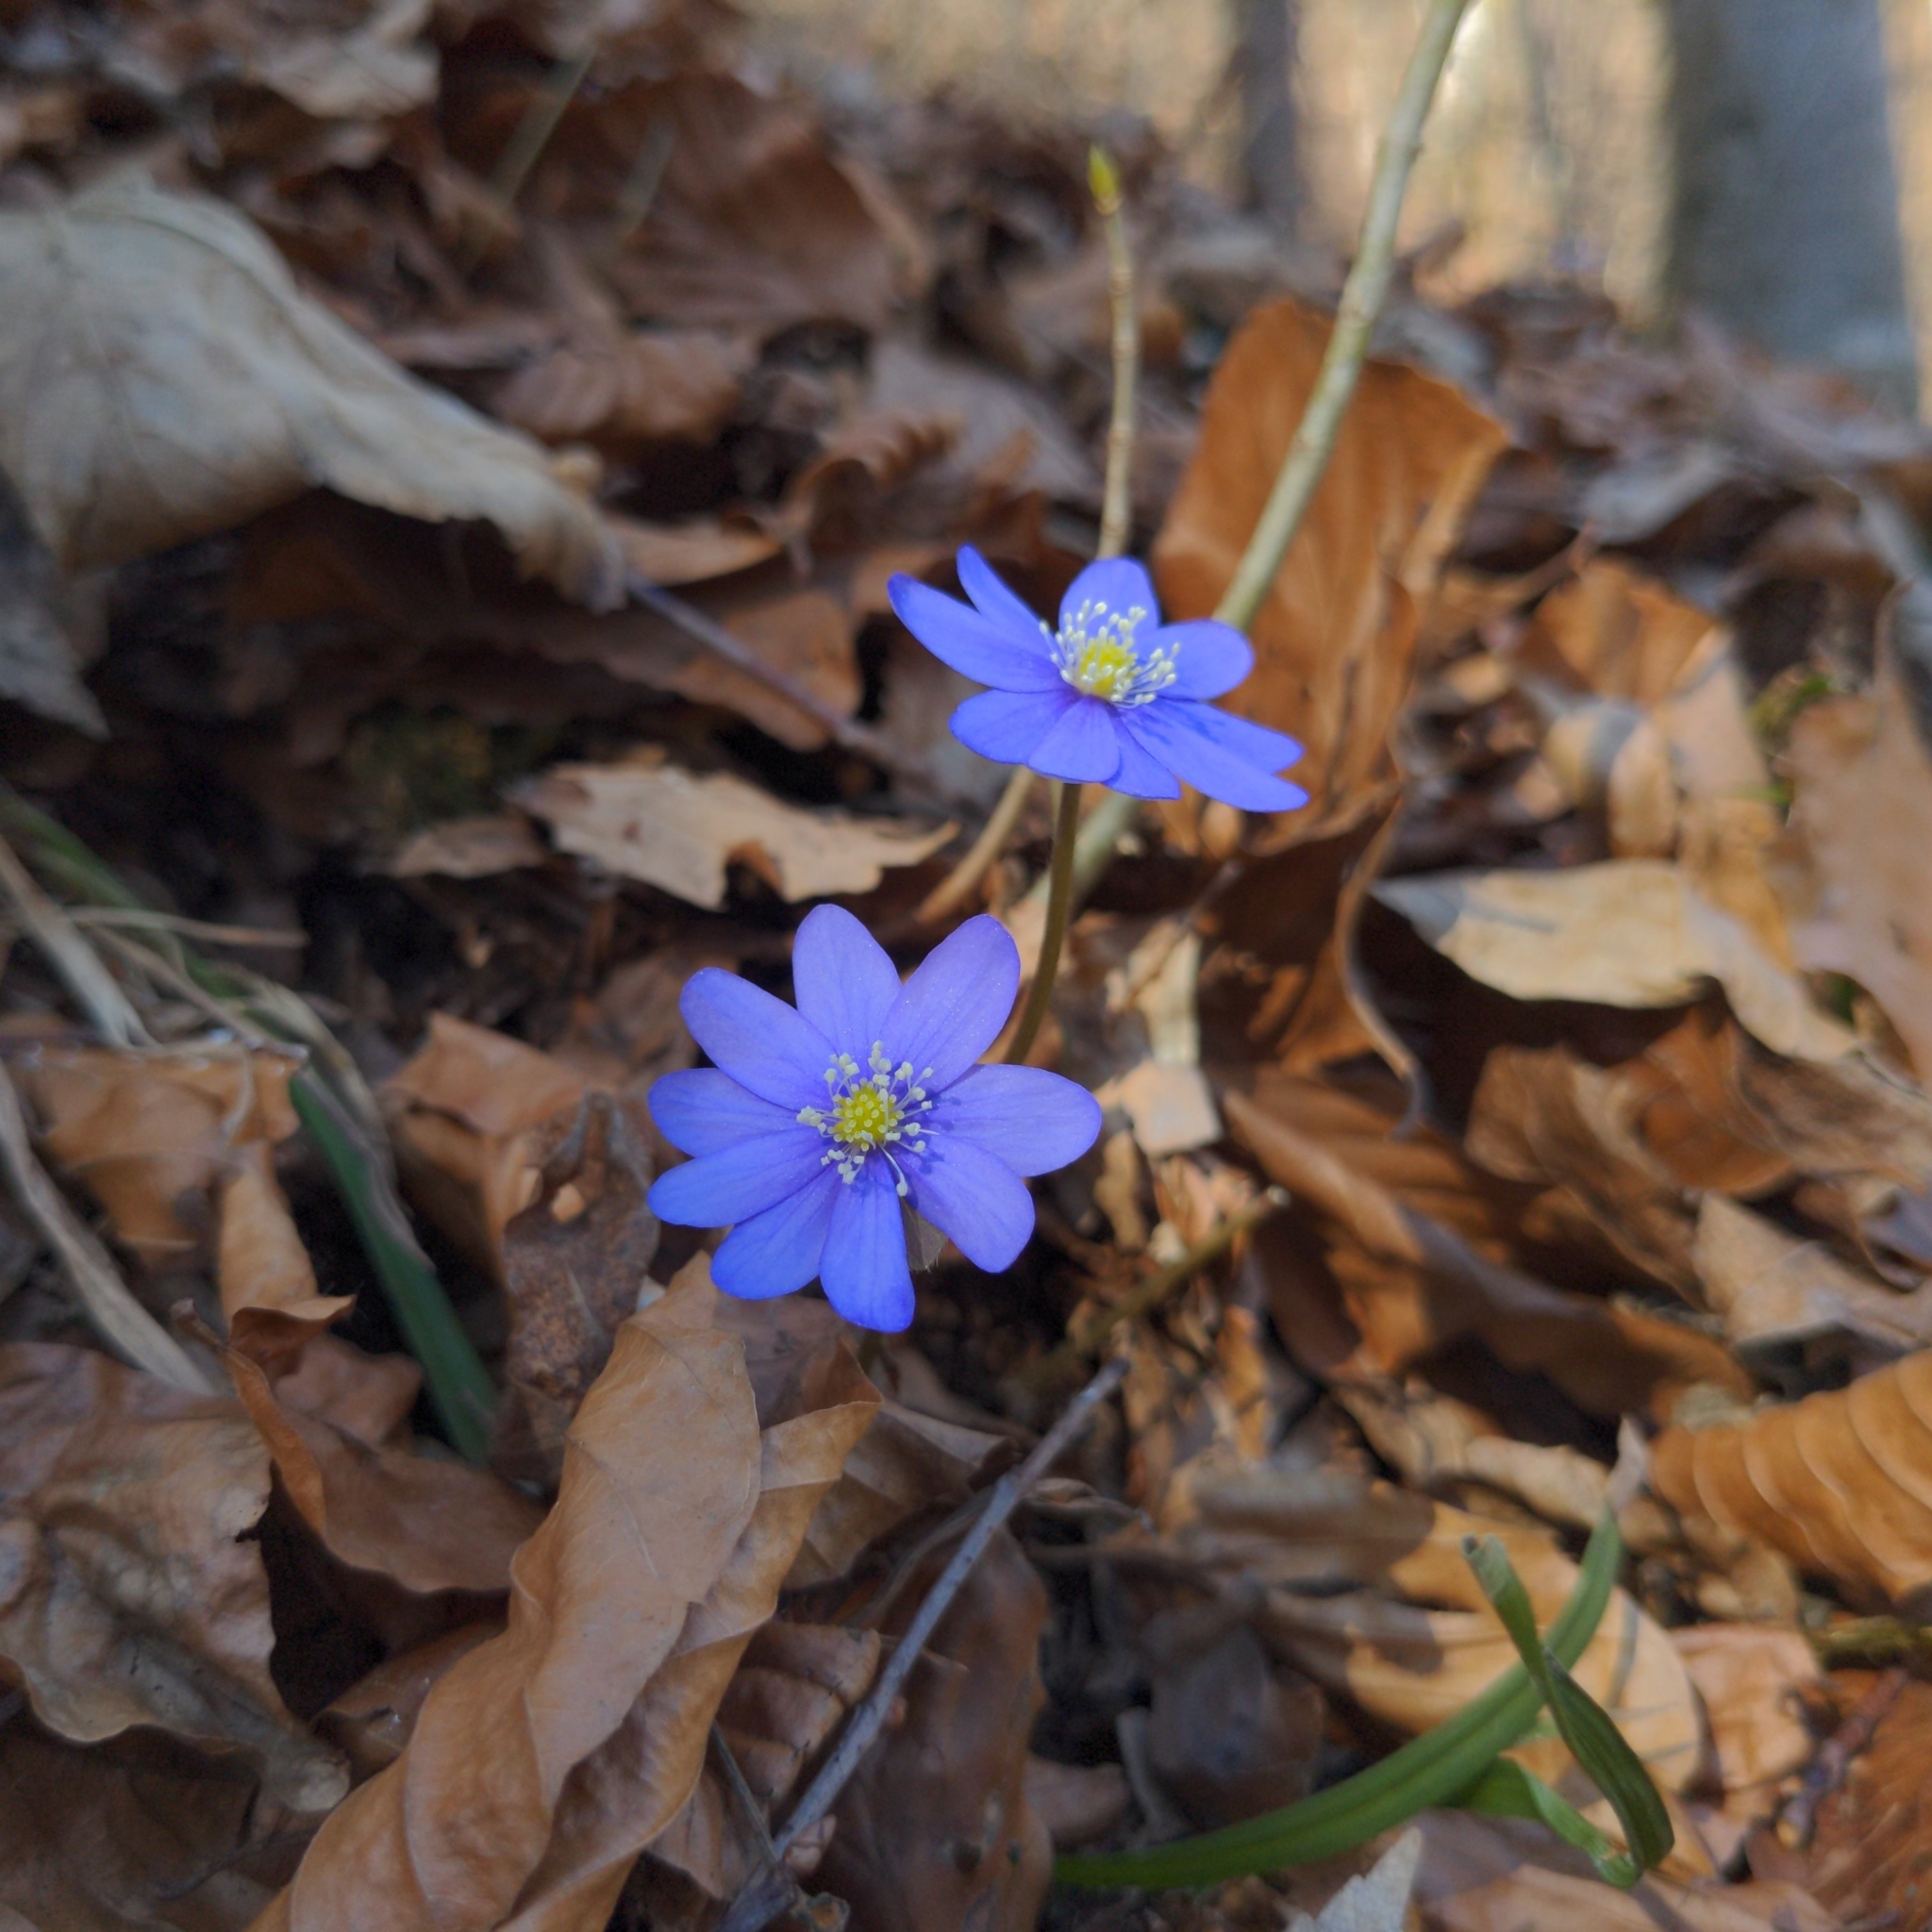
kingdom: Plantae
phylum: Tracheophyta
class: Magnoliopsida
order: Ranunculales
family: Ranunculaceae
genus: Hepatica
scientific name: Hepatica nobilis
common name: Liverleaf
